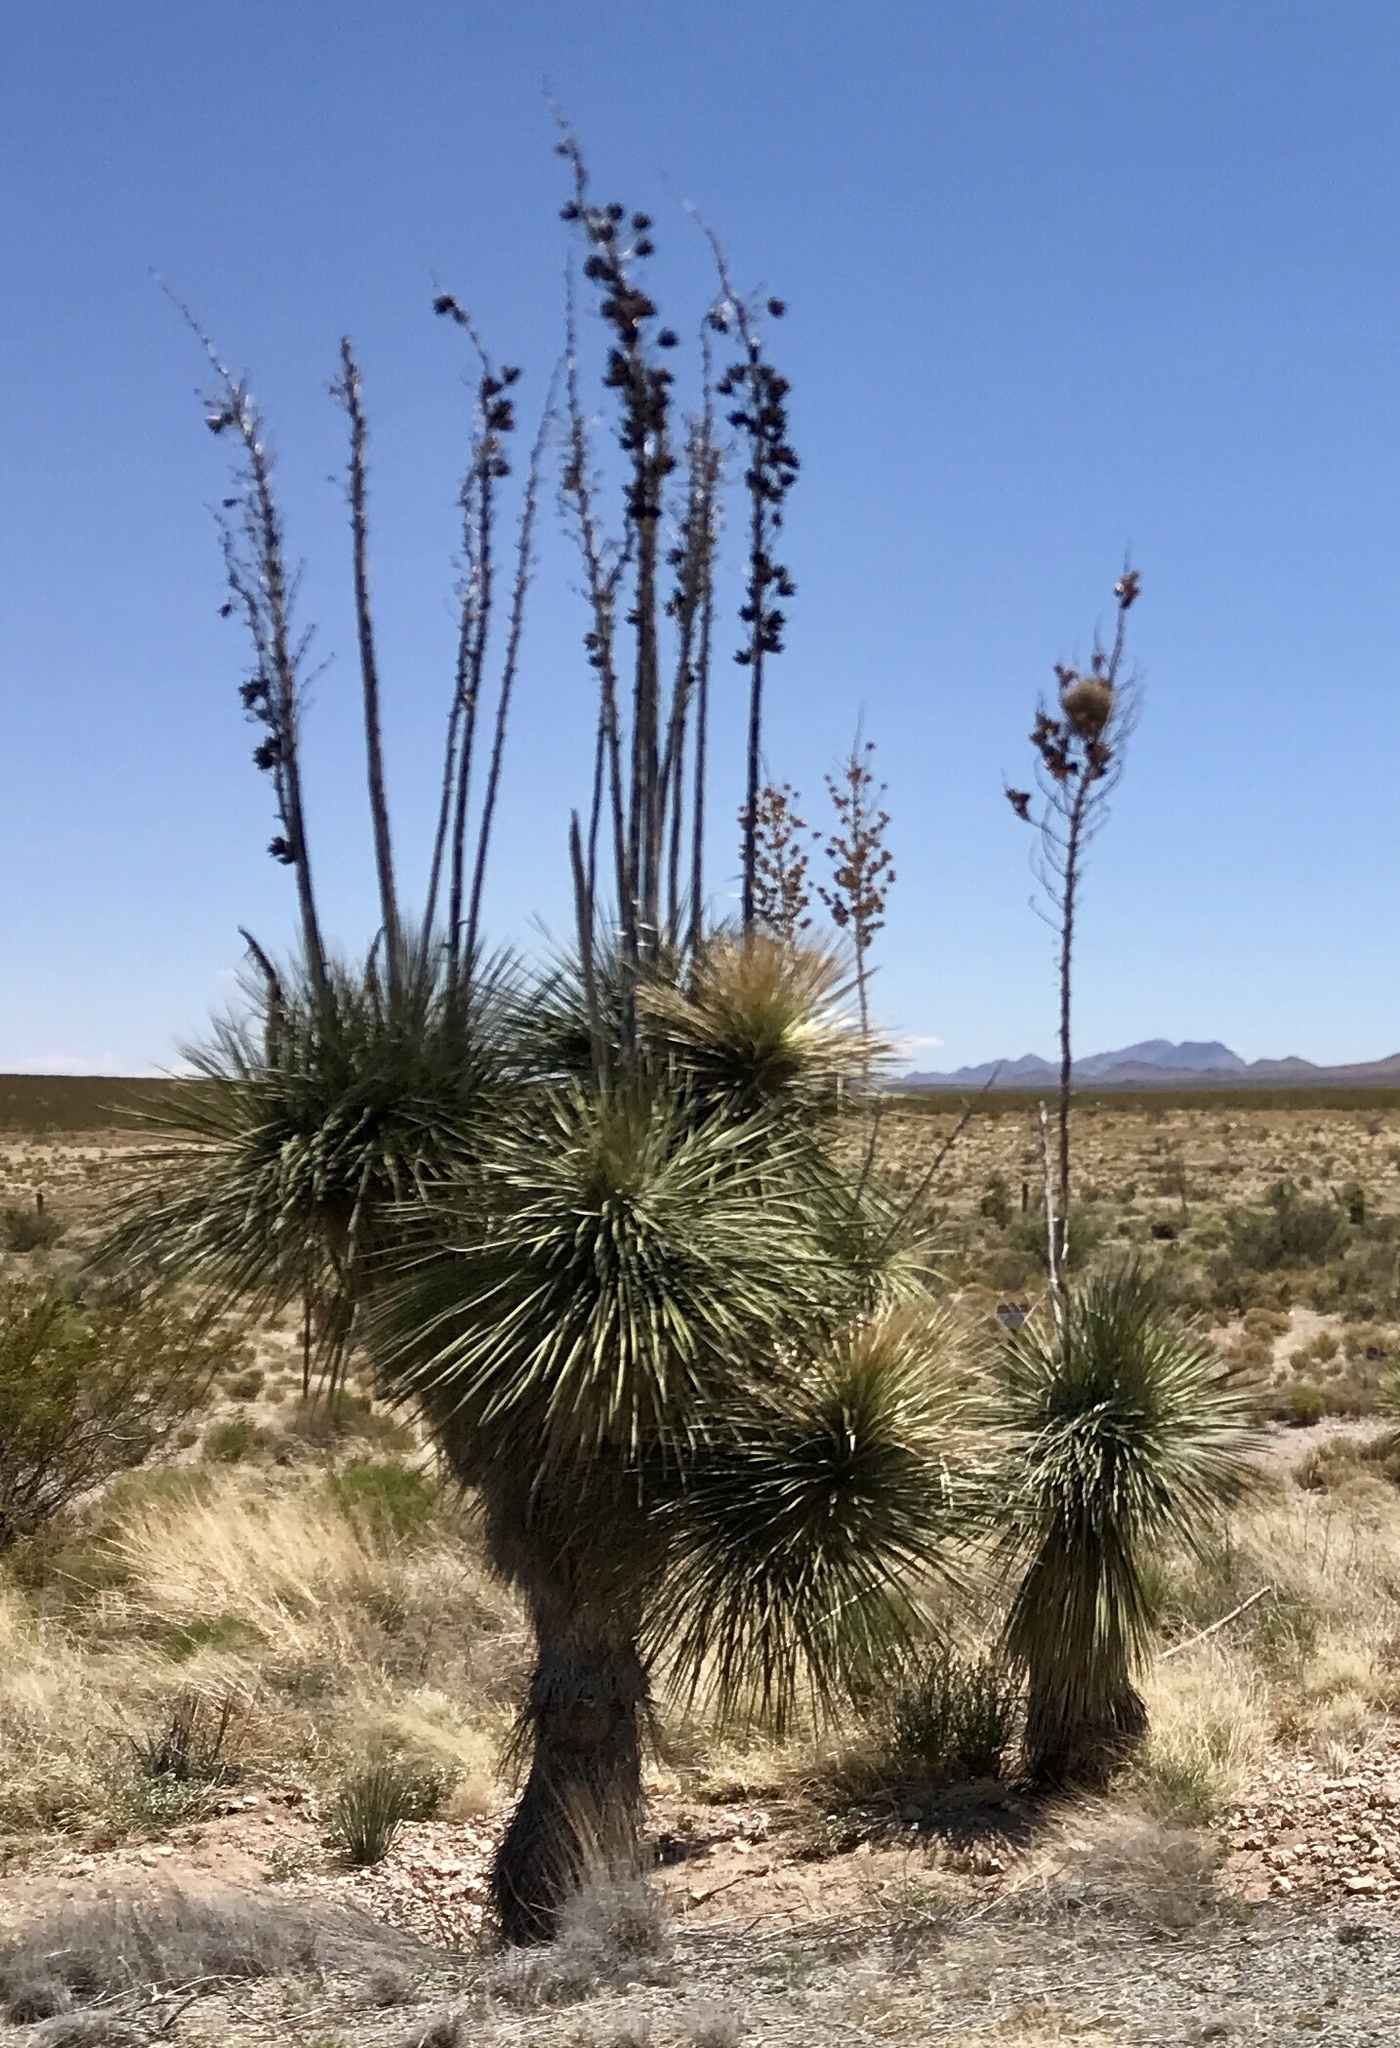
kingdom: Plantae
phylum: Tracheophyta
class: Liliopsida
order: Asparagales
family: Asparagaceae
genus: Yucca
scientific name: Yucca elata
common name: Palmella
